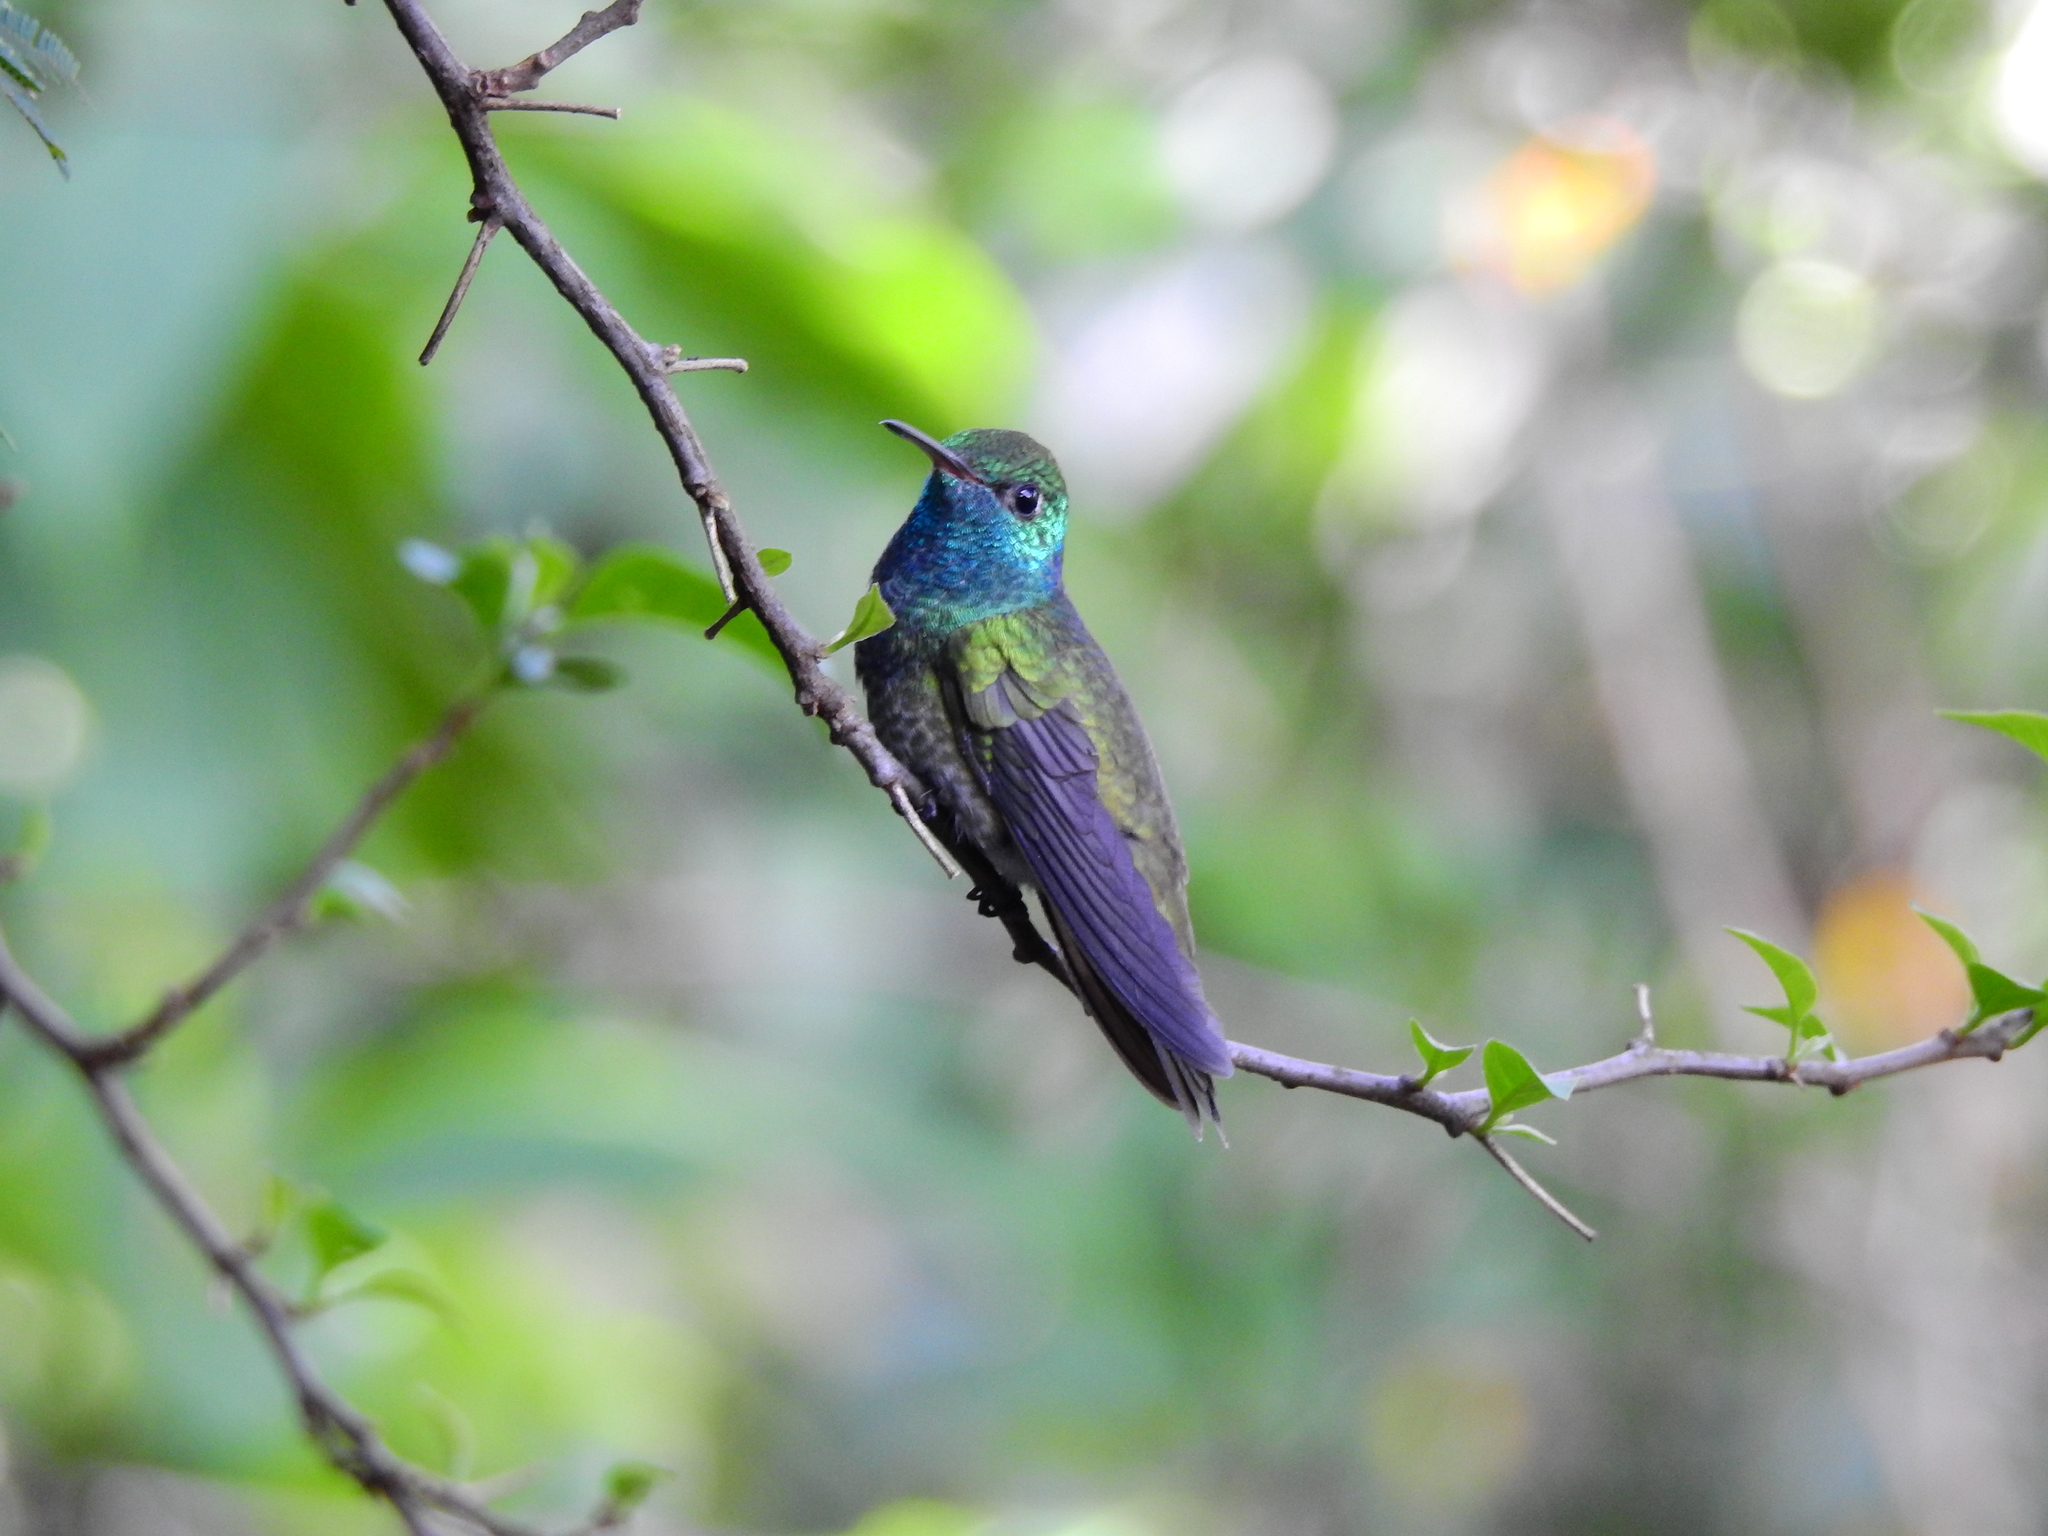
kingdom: Animalia
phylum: Chordata
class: Aves
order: Apodiformes
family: Trochilidae
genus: Chrysuronia
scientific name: Chrysuronia versicolor
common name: Versicolored emerald
